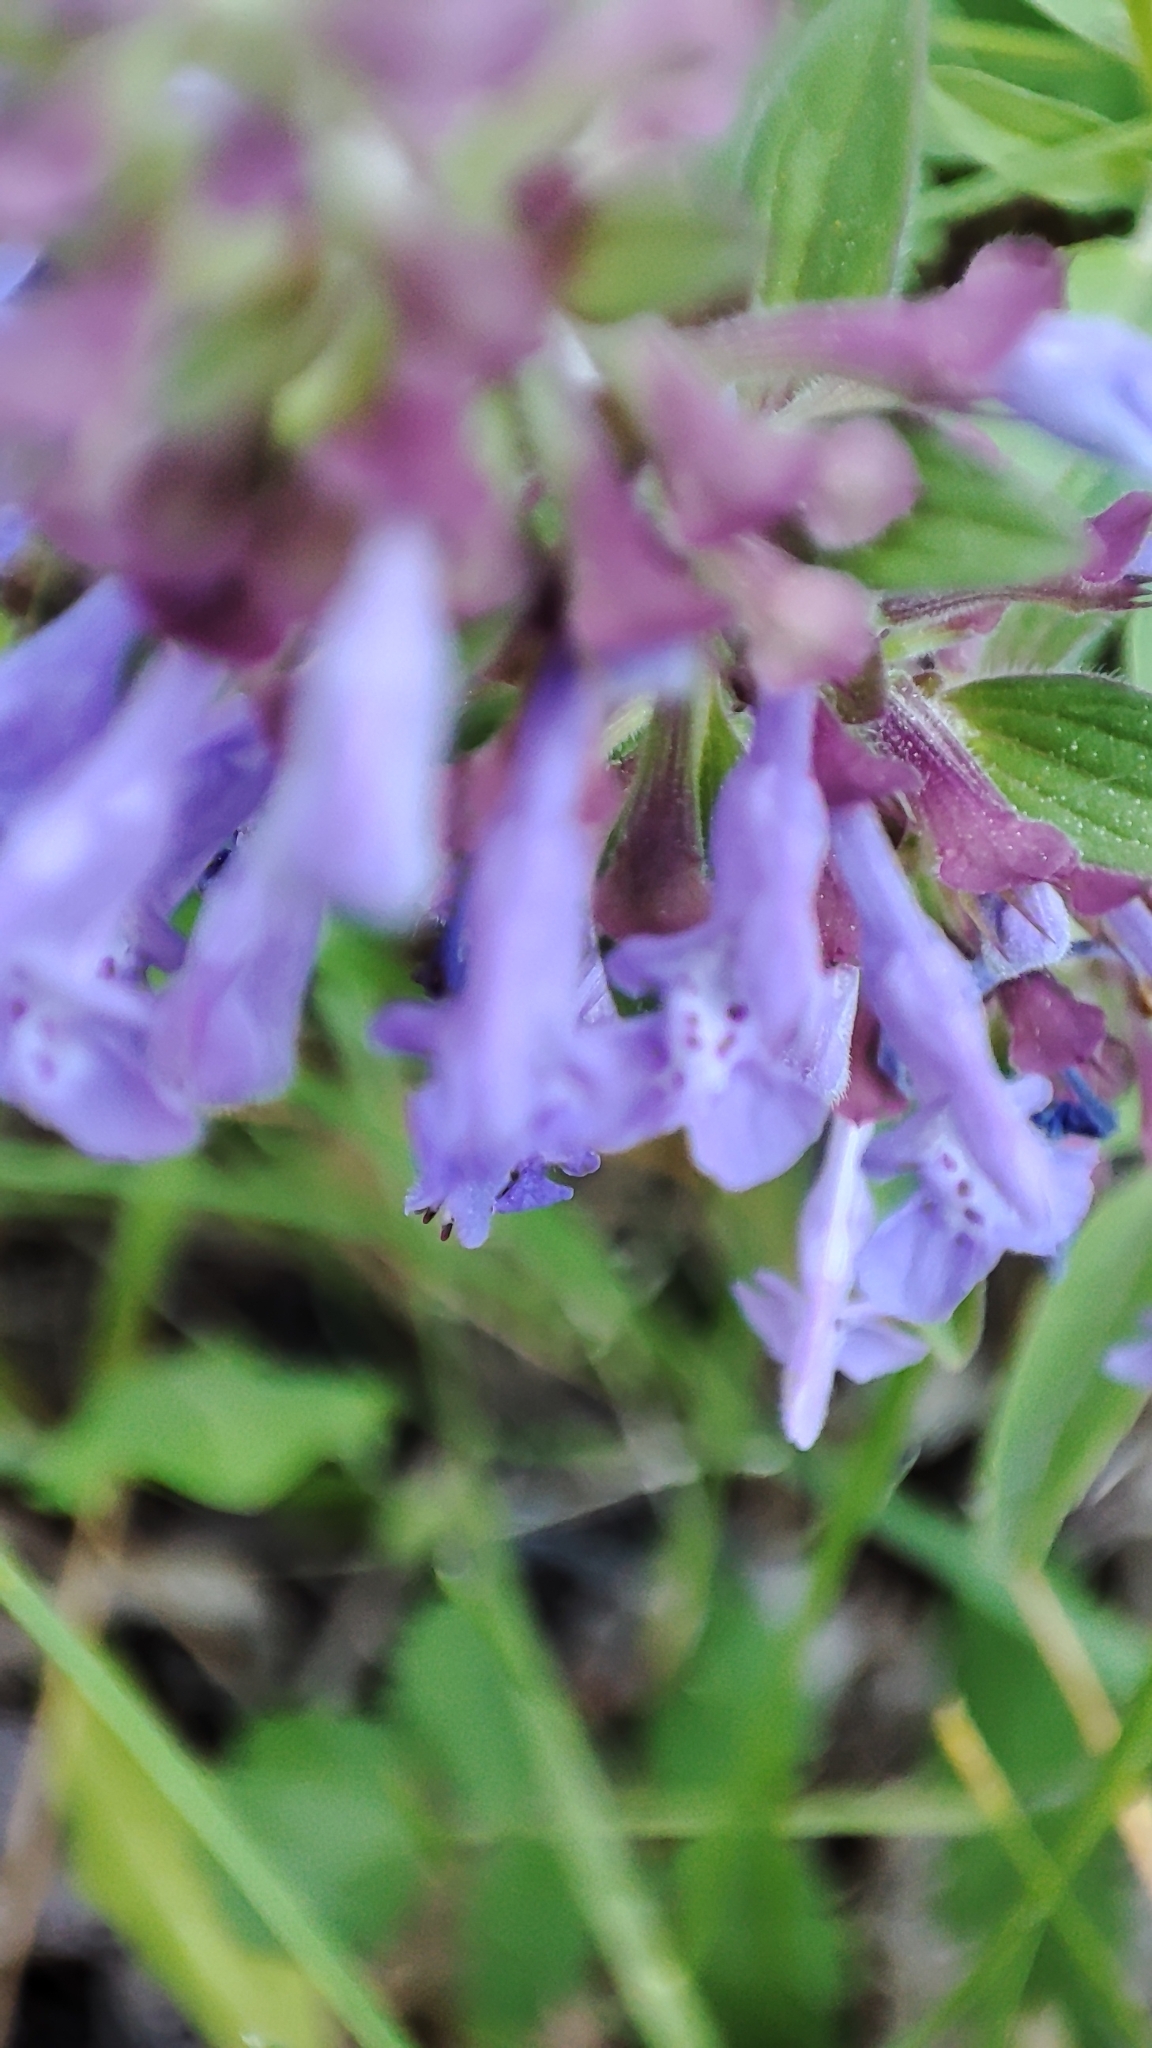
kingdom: Plantae
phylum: Tracheophyta
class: Magnoliopsida
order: Lamiales
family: Lamiaceae
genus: Dracocephalum
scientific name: Dracocephalum nutans
